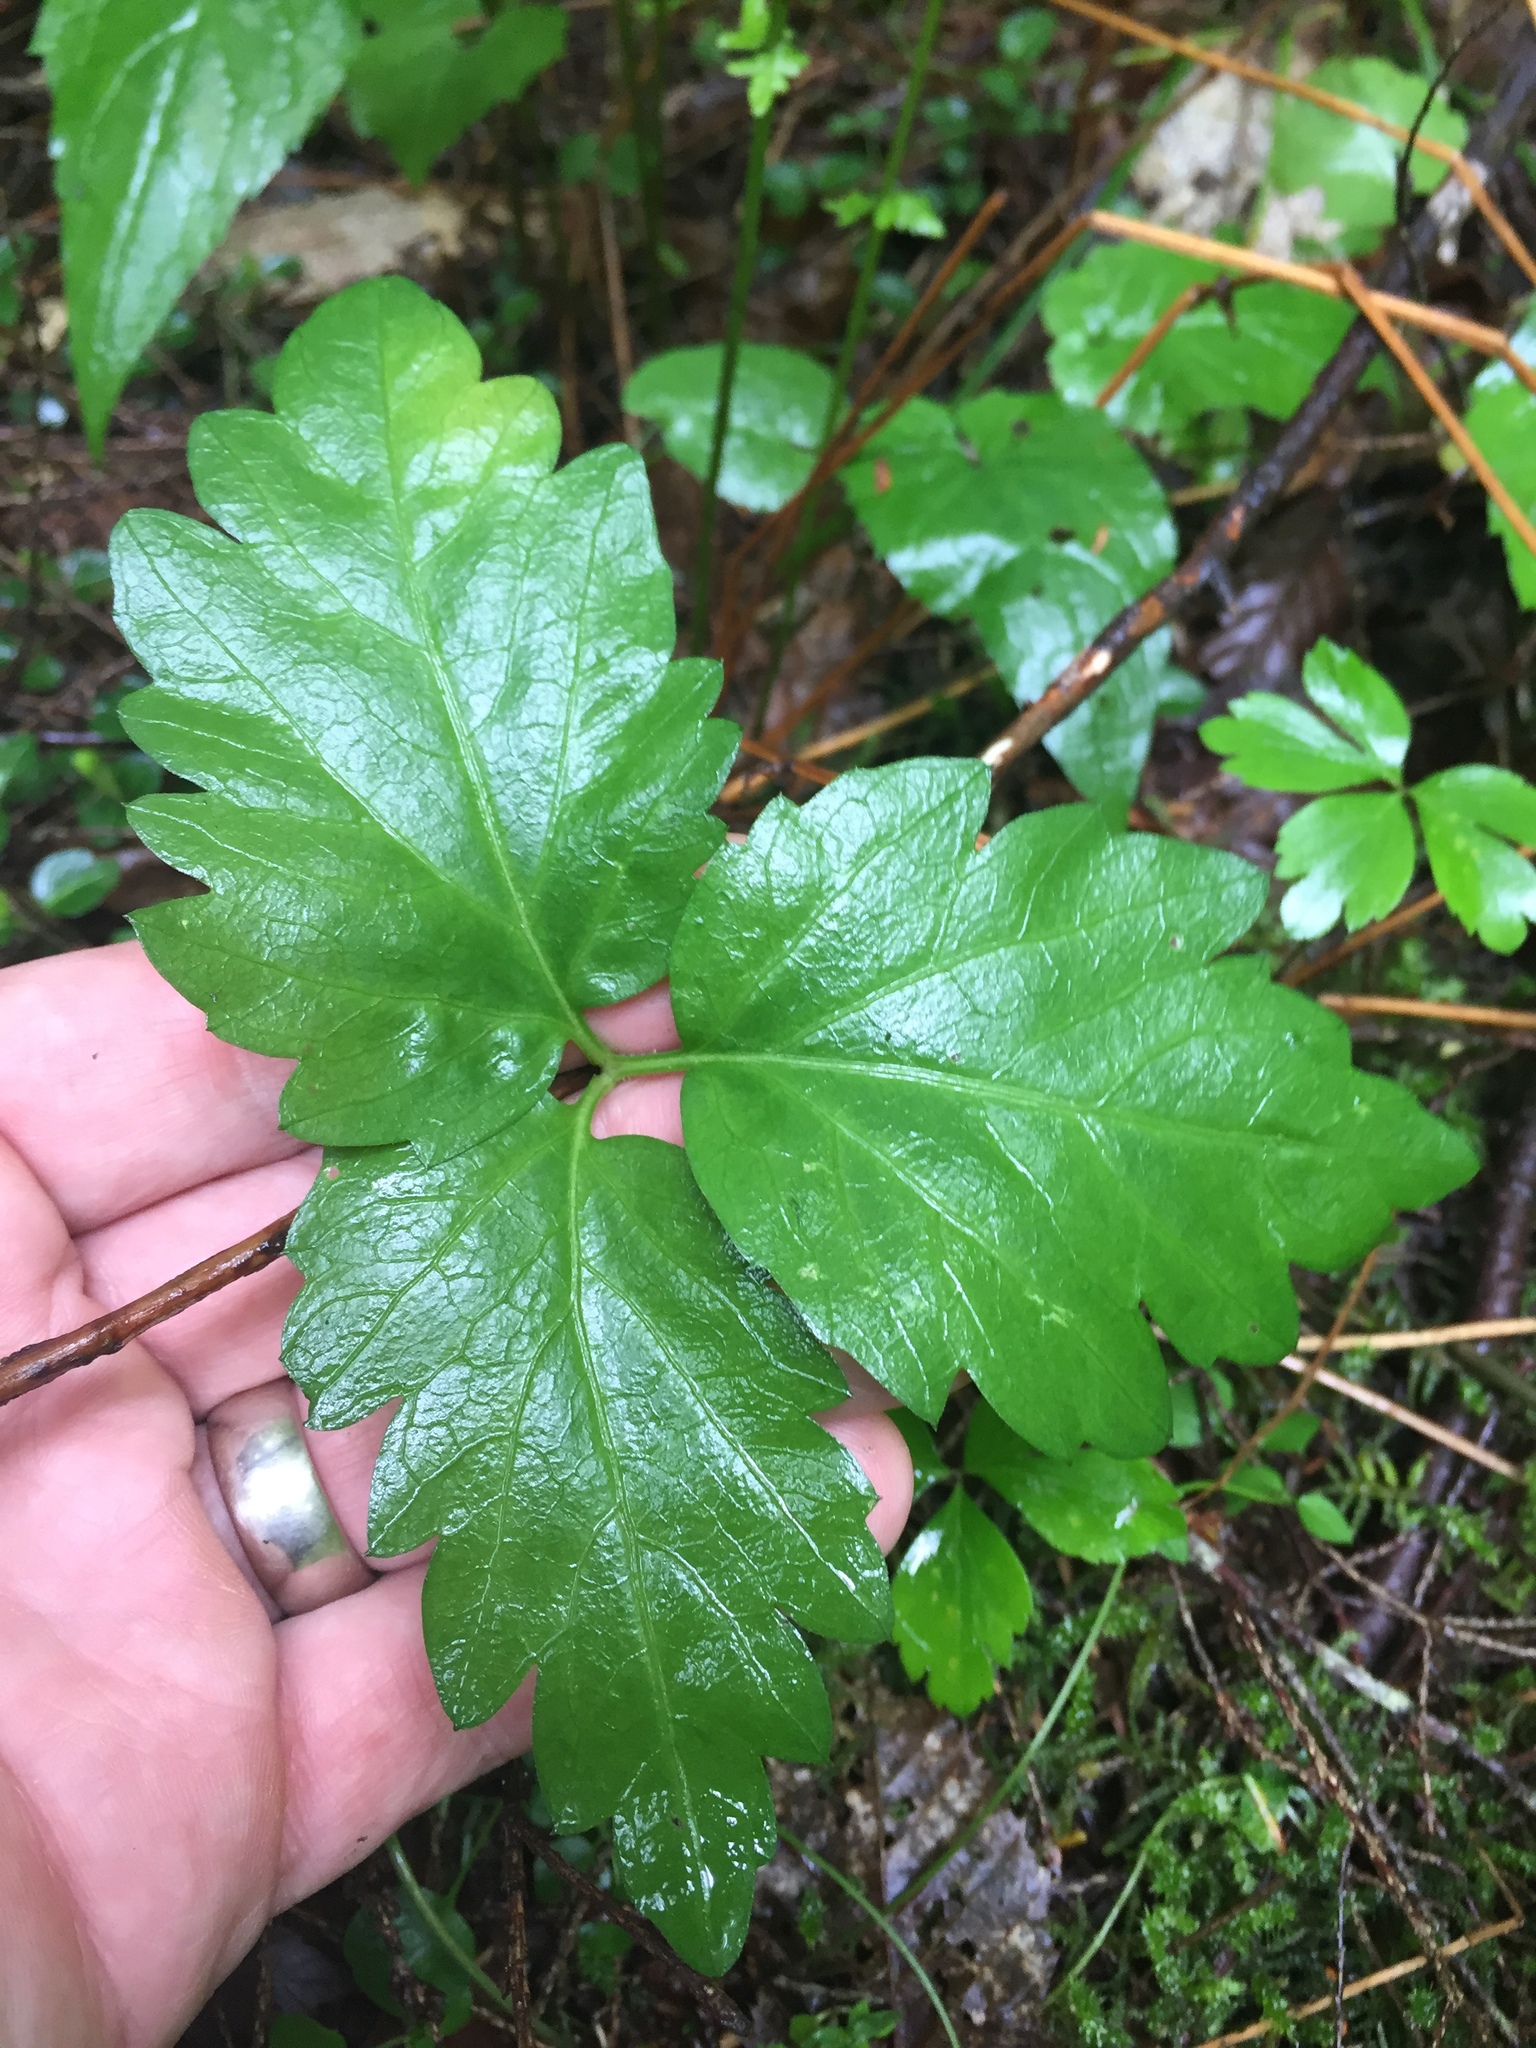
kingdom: Plantae
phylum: Tracheophyta
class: Magnoliopsida
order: Brassicales
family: Brassicaceae
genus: Cardamine
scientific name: Cardamine diphylla
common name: Broad-leaved toothwort
